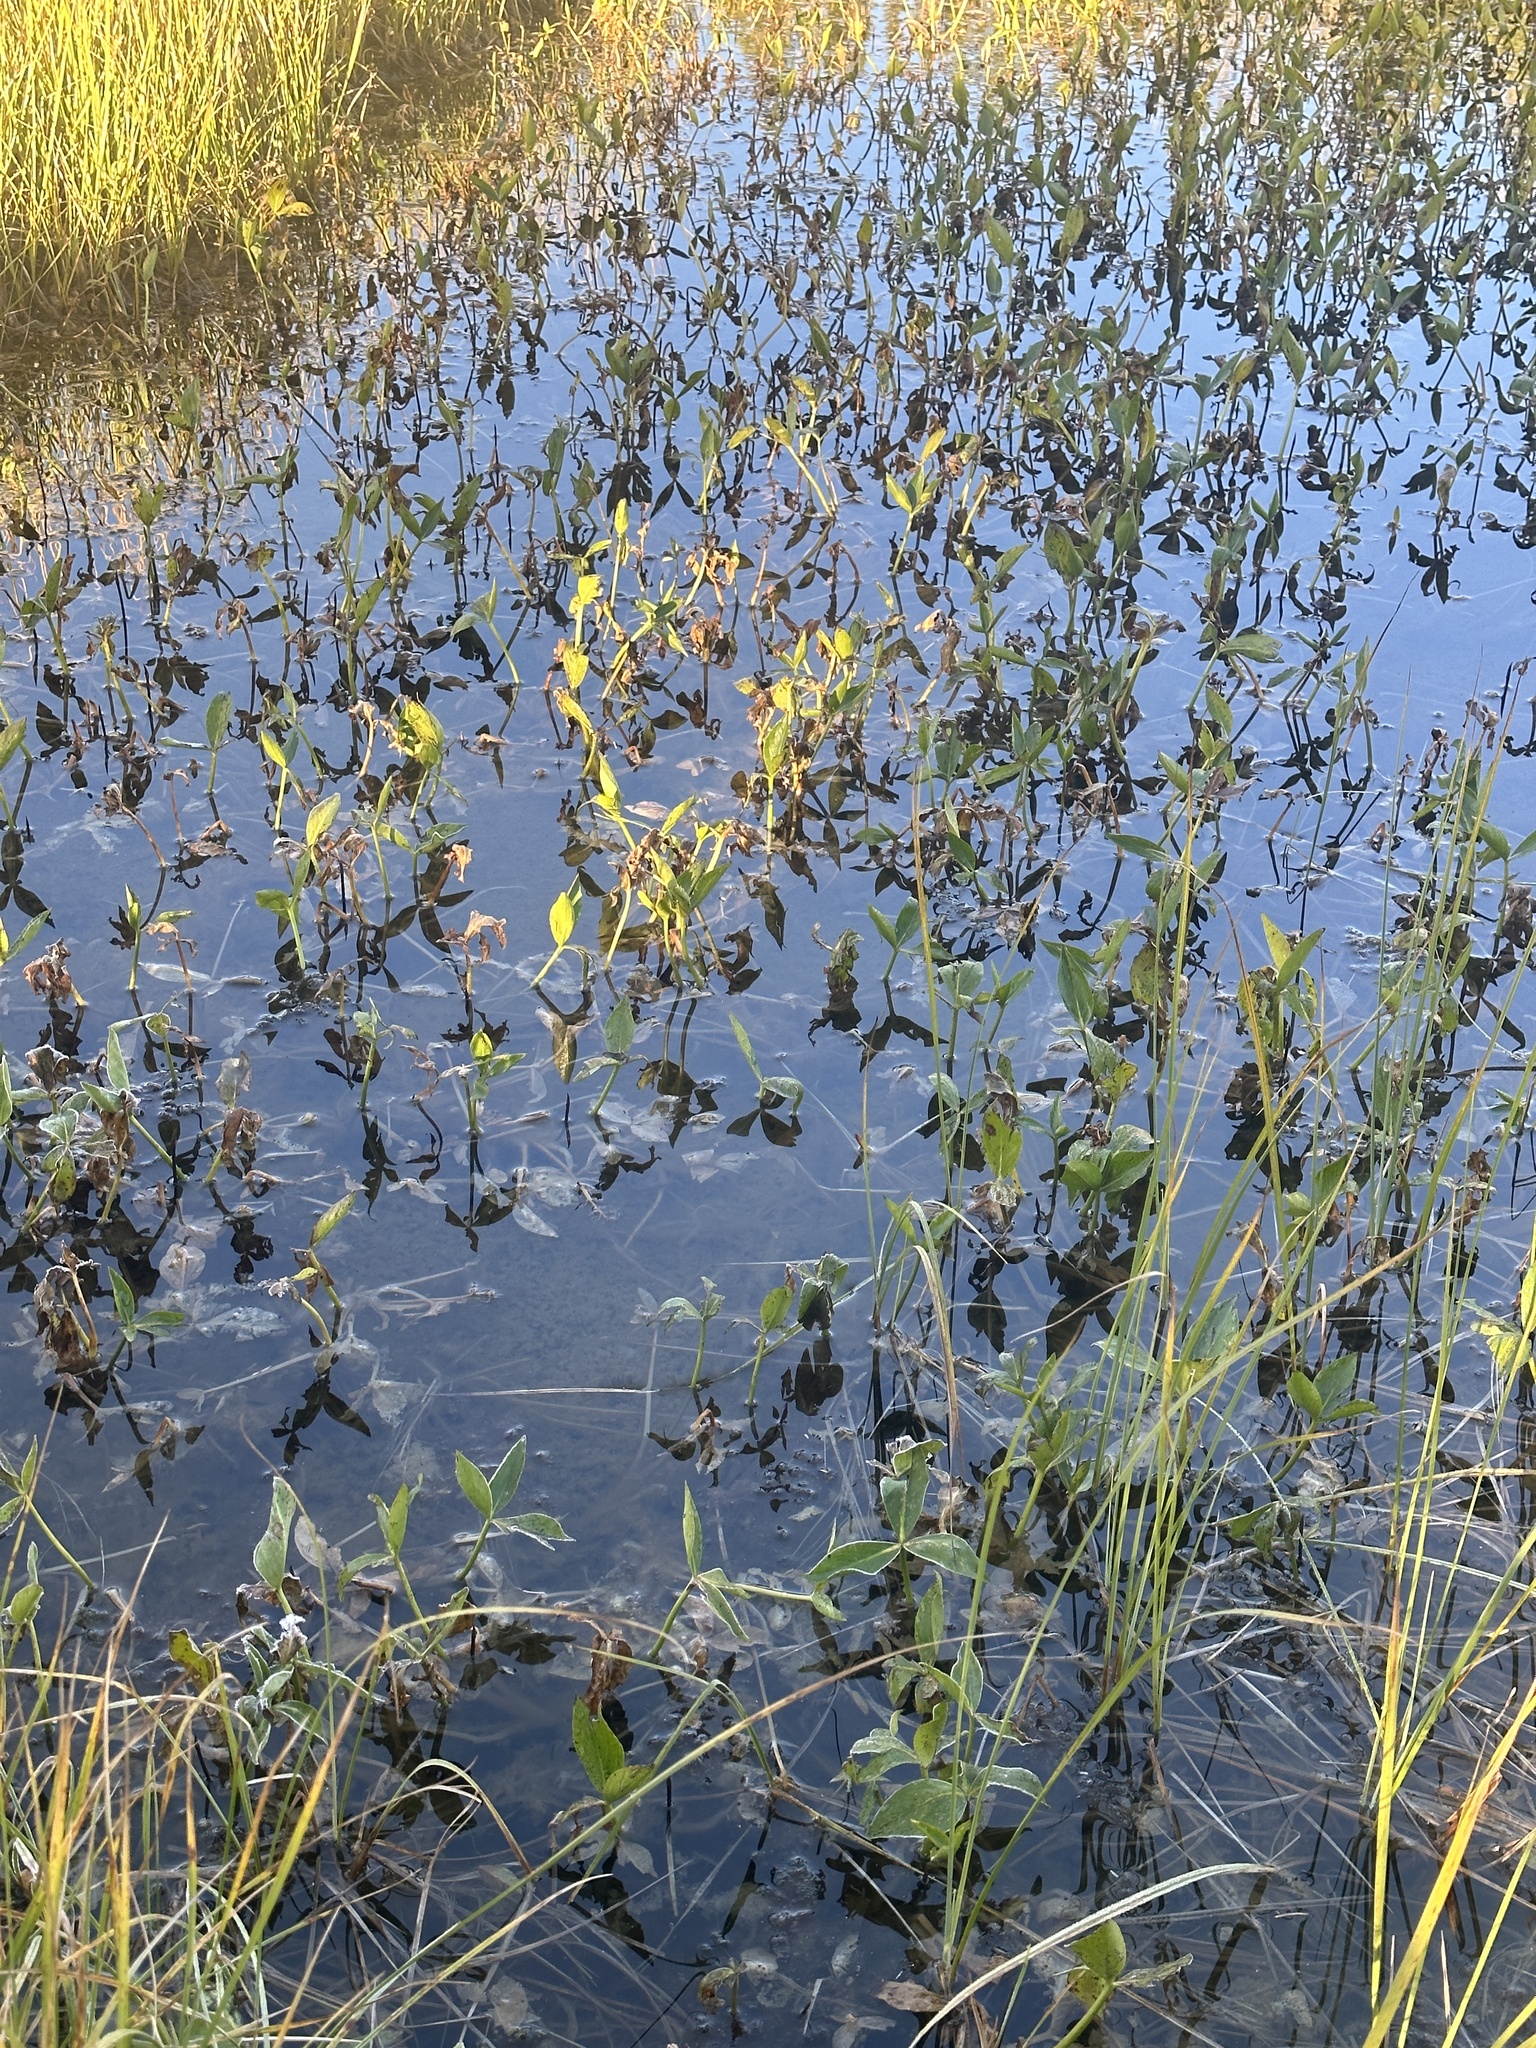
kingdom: Plantae
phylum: Tracheophyta
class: Magnoliopsida
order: Asterales
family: Menyanthaceae
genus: Menyanthes
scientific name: Menyanthes trifoliata
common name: Bogbean
